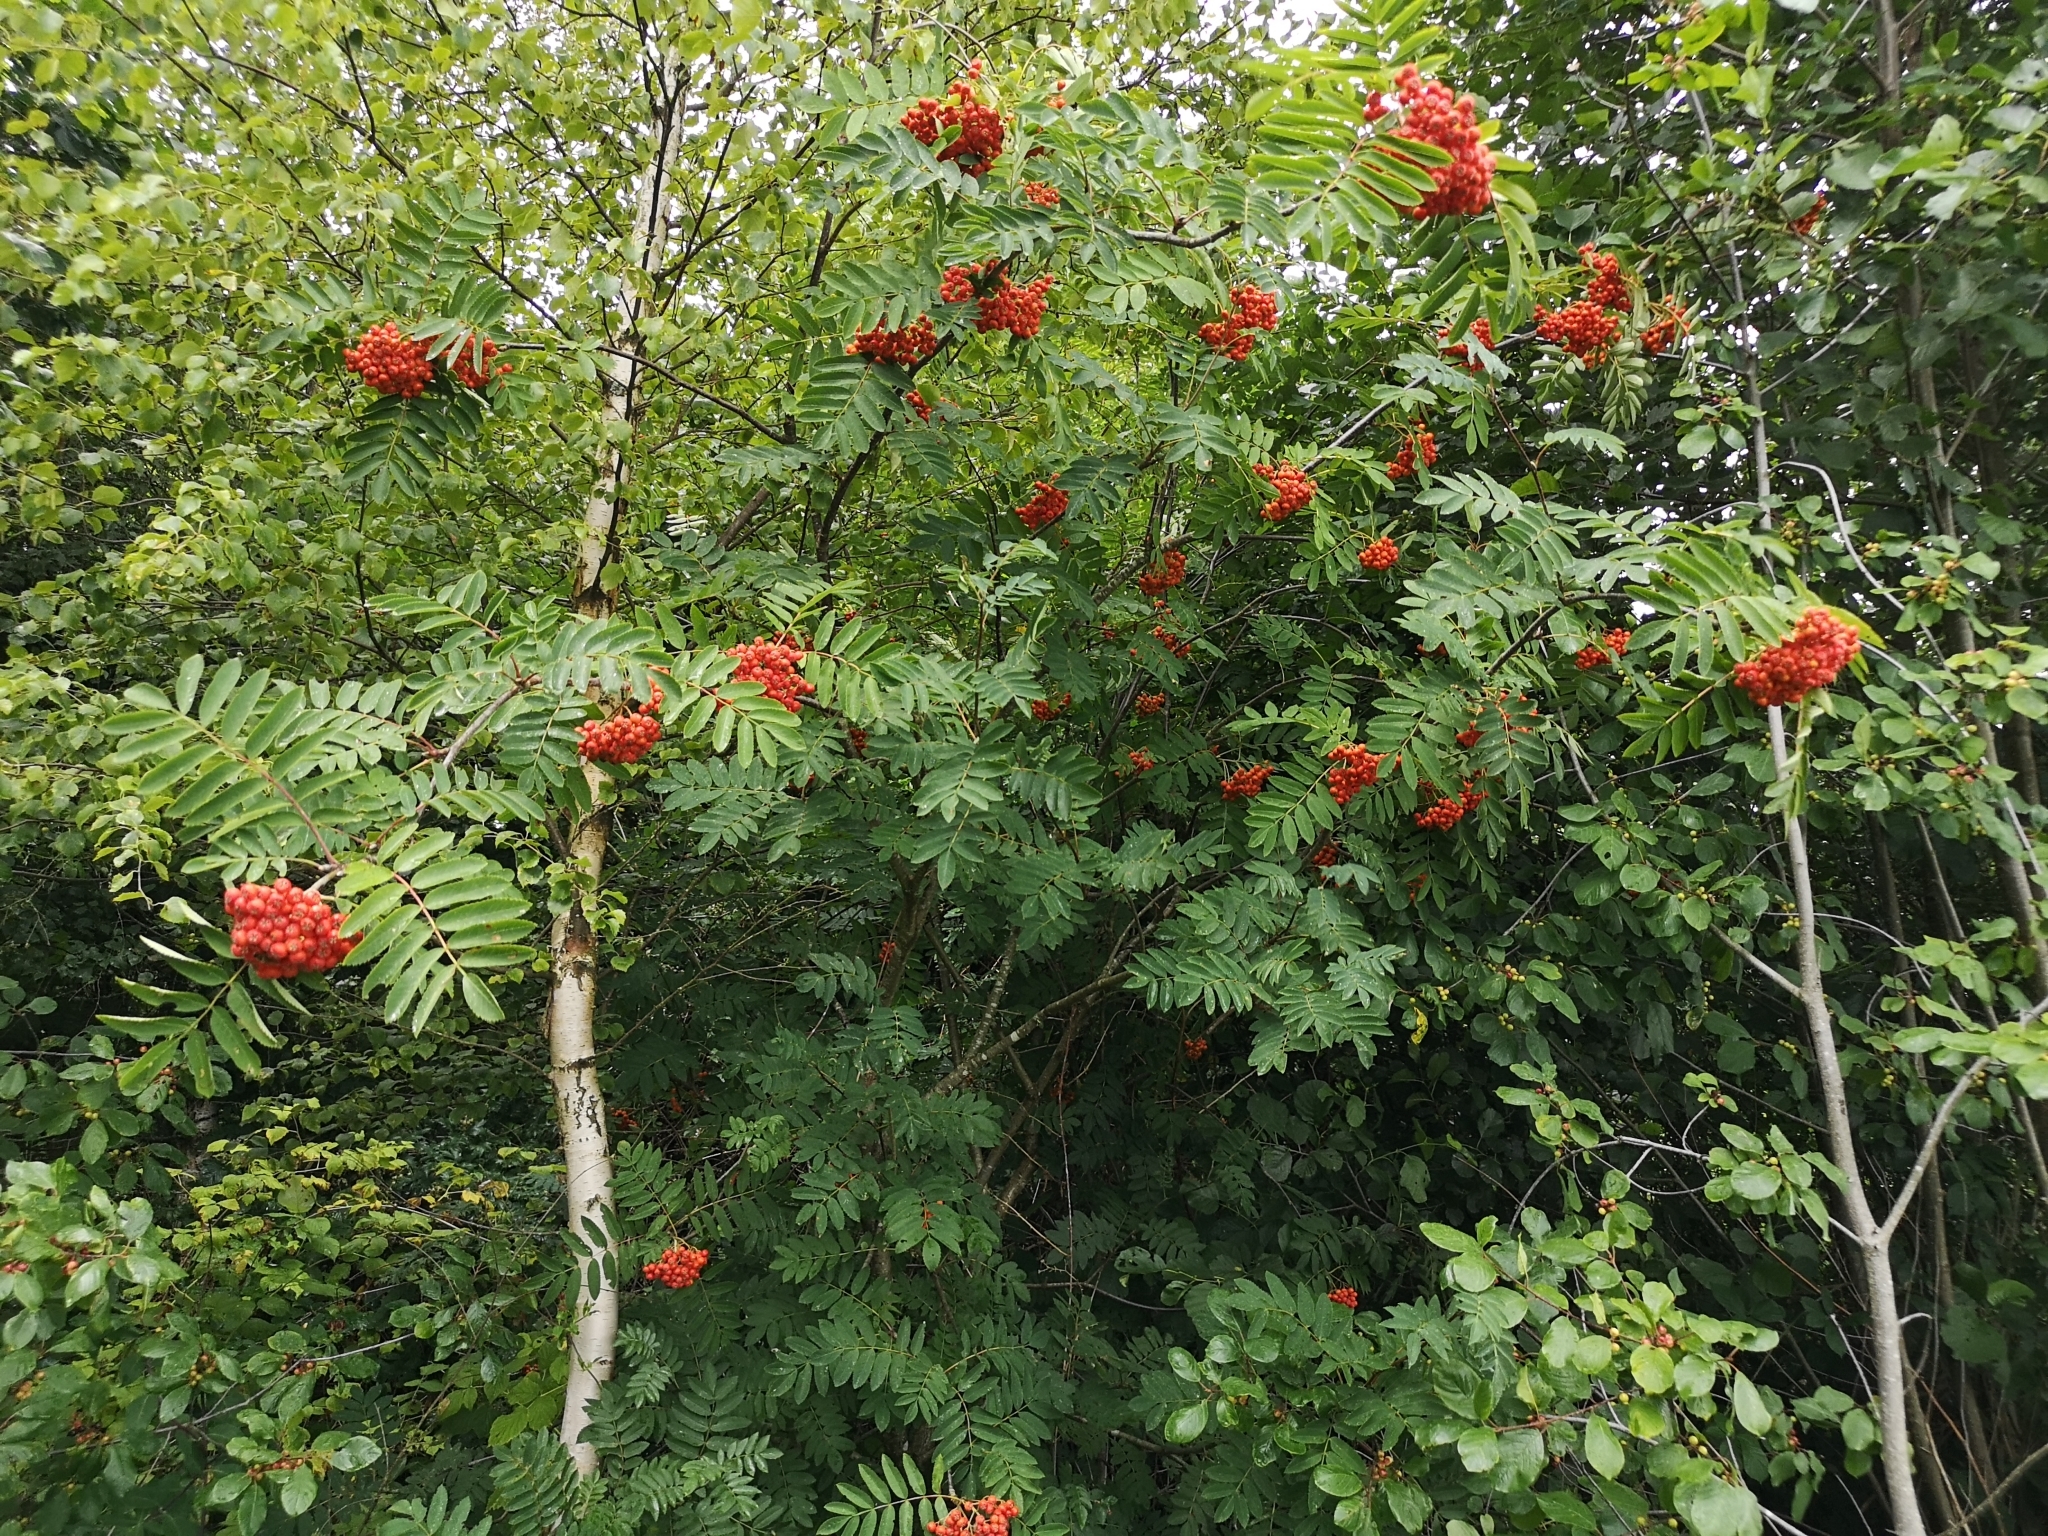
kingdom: Plantae
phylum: Tracheophyta
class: Magnoliopsida
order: Rosales
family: Rosaceae
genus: Sorbus
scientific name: Sorbus aucuparia
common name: Rowan
